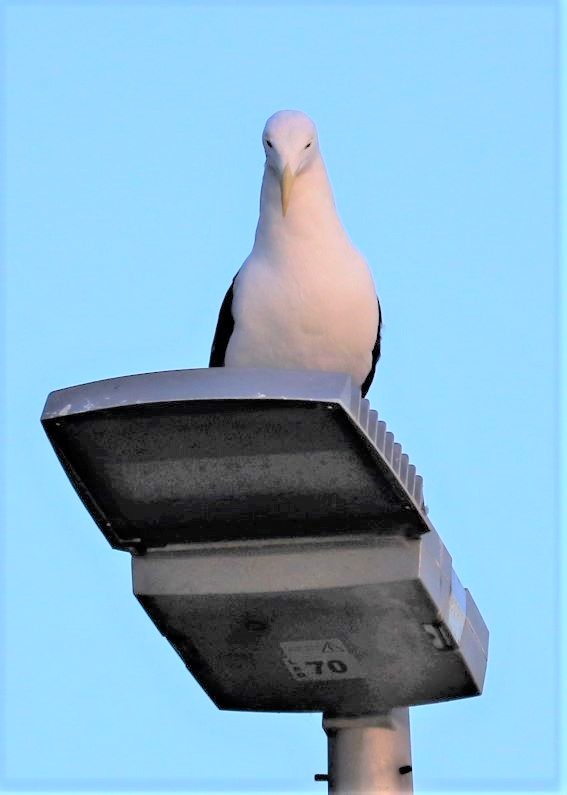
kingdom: Animalia
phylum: Chordata
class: Aves
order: Charadriiformes
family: Laridae
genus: Larus
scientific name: Larus dominicanus
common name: Kelp gull
